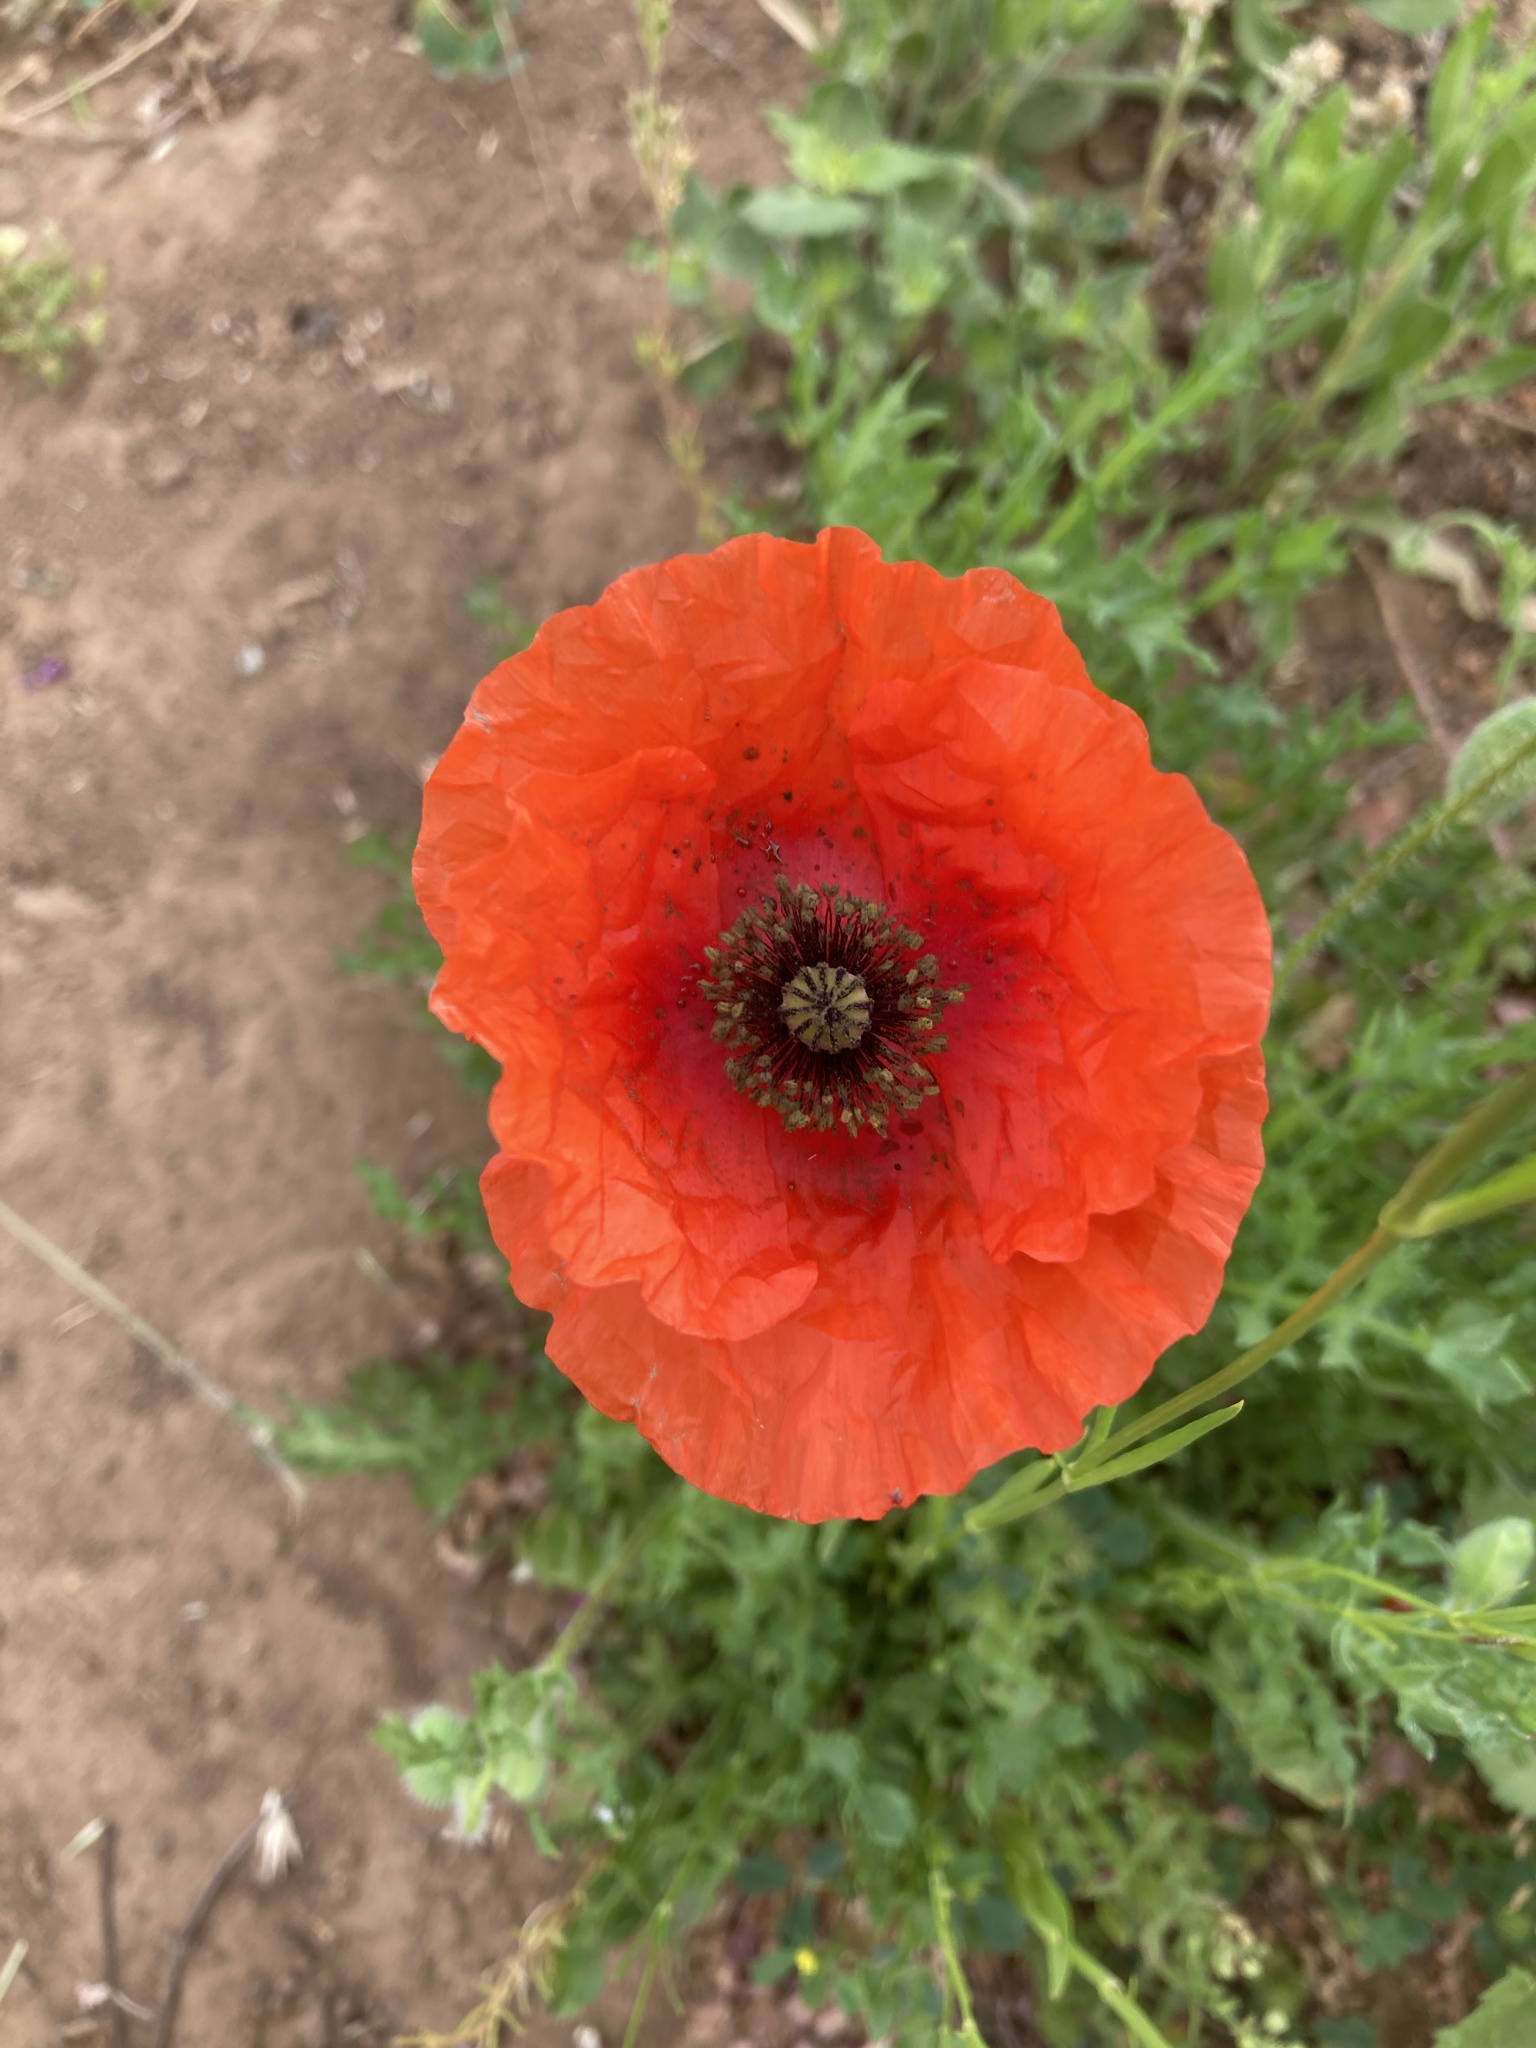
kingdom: Plantae
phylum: Tracheophyta
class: Magnoliopsida
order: Ranunculales
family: Papaveraceae
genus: Papaver
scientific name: Papaver rhoeas
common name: Corn poppy
